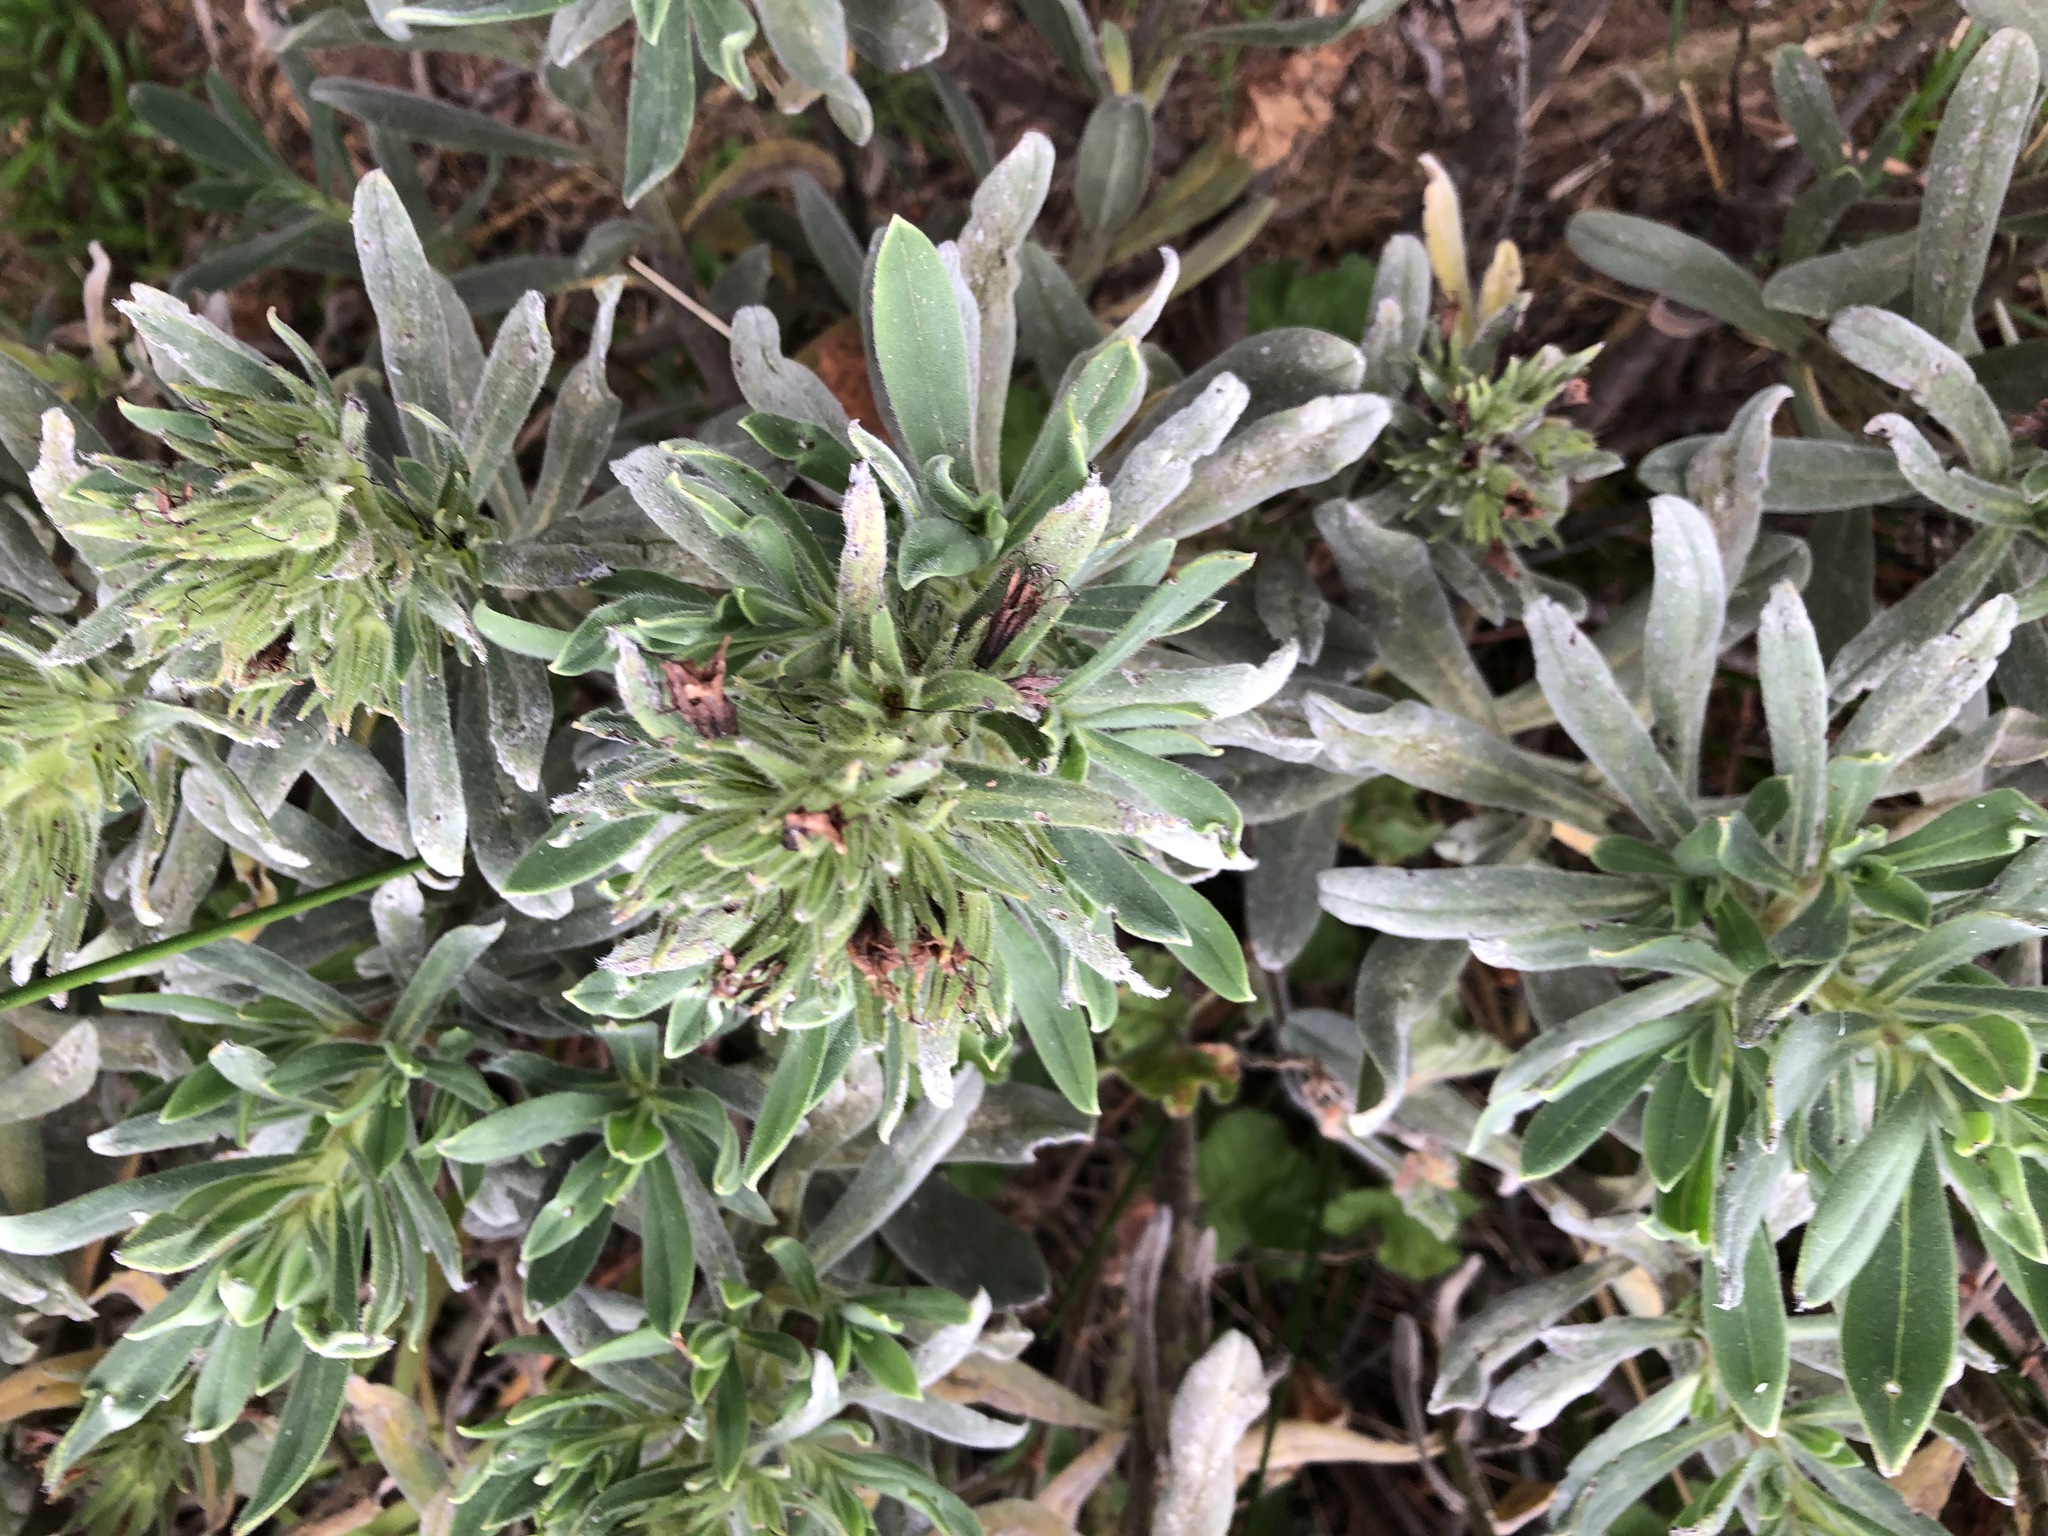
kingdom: Plantae
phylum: Tracheophyta
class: Magnoliopsida
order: Boraginales
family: Boraginaceae
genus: Lobostemon
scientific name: Lobostemon montanus
